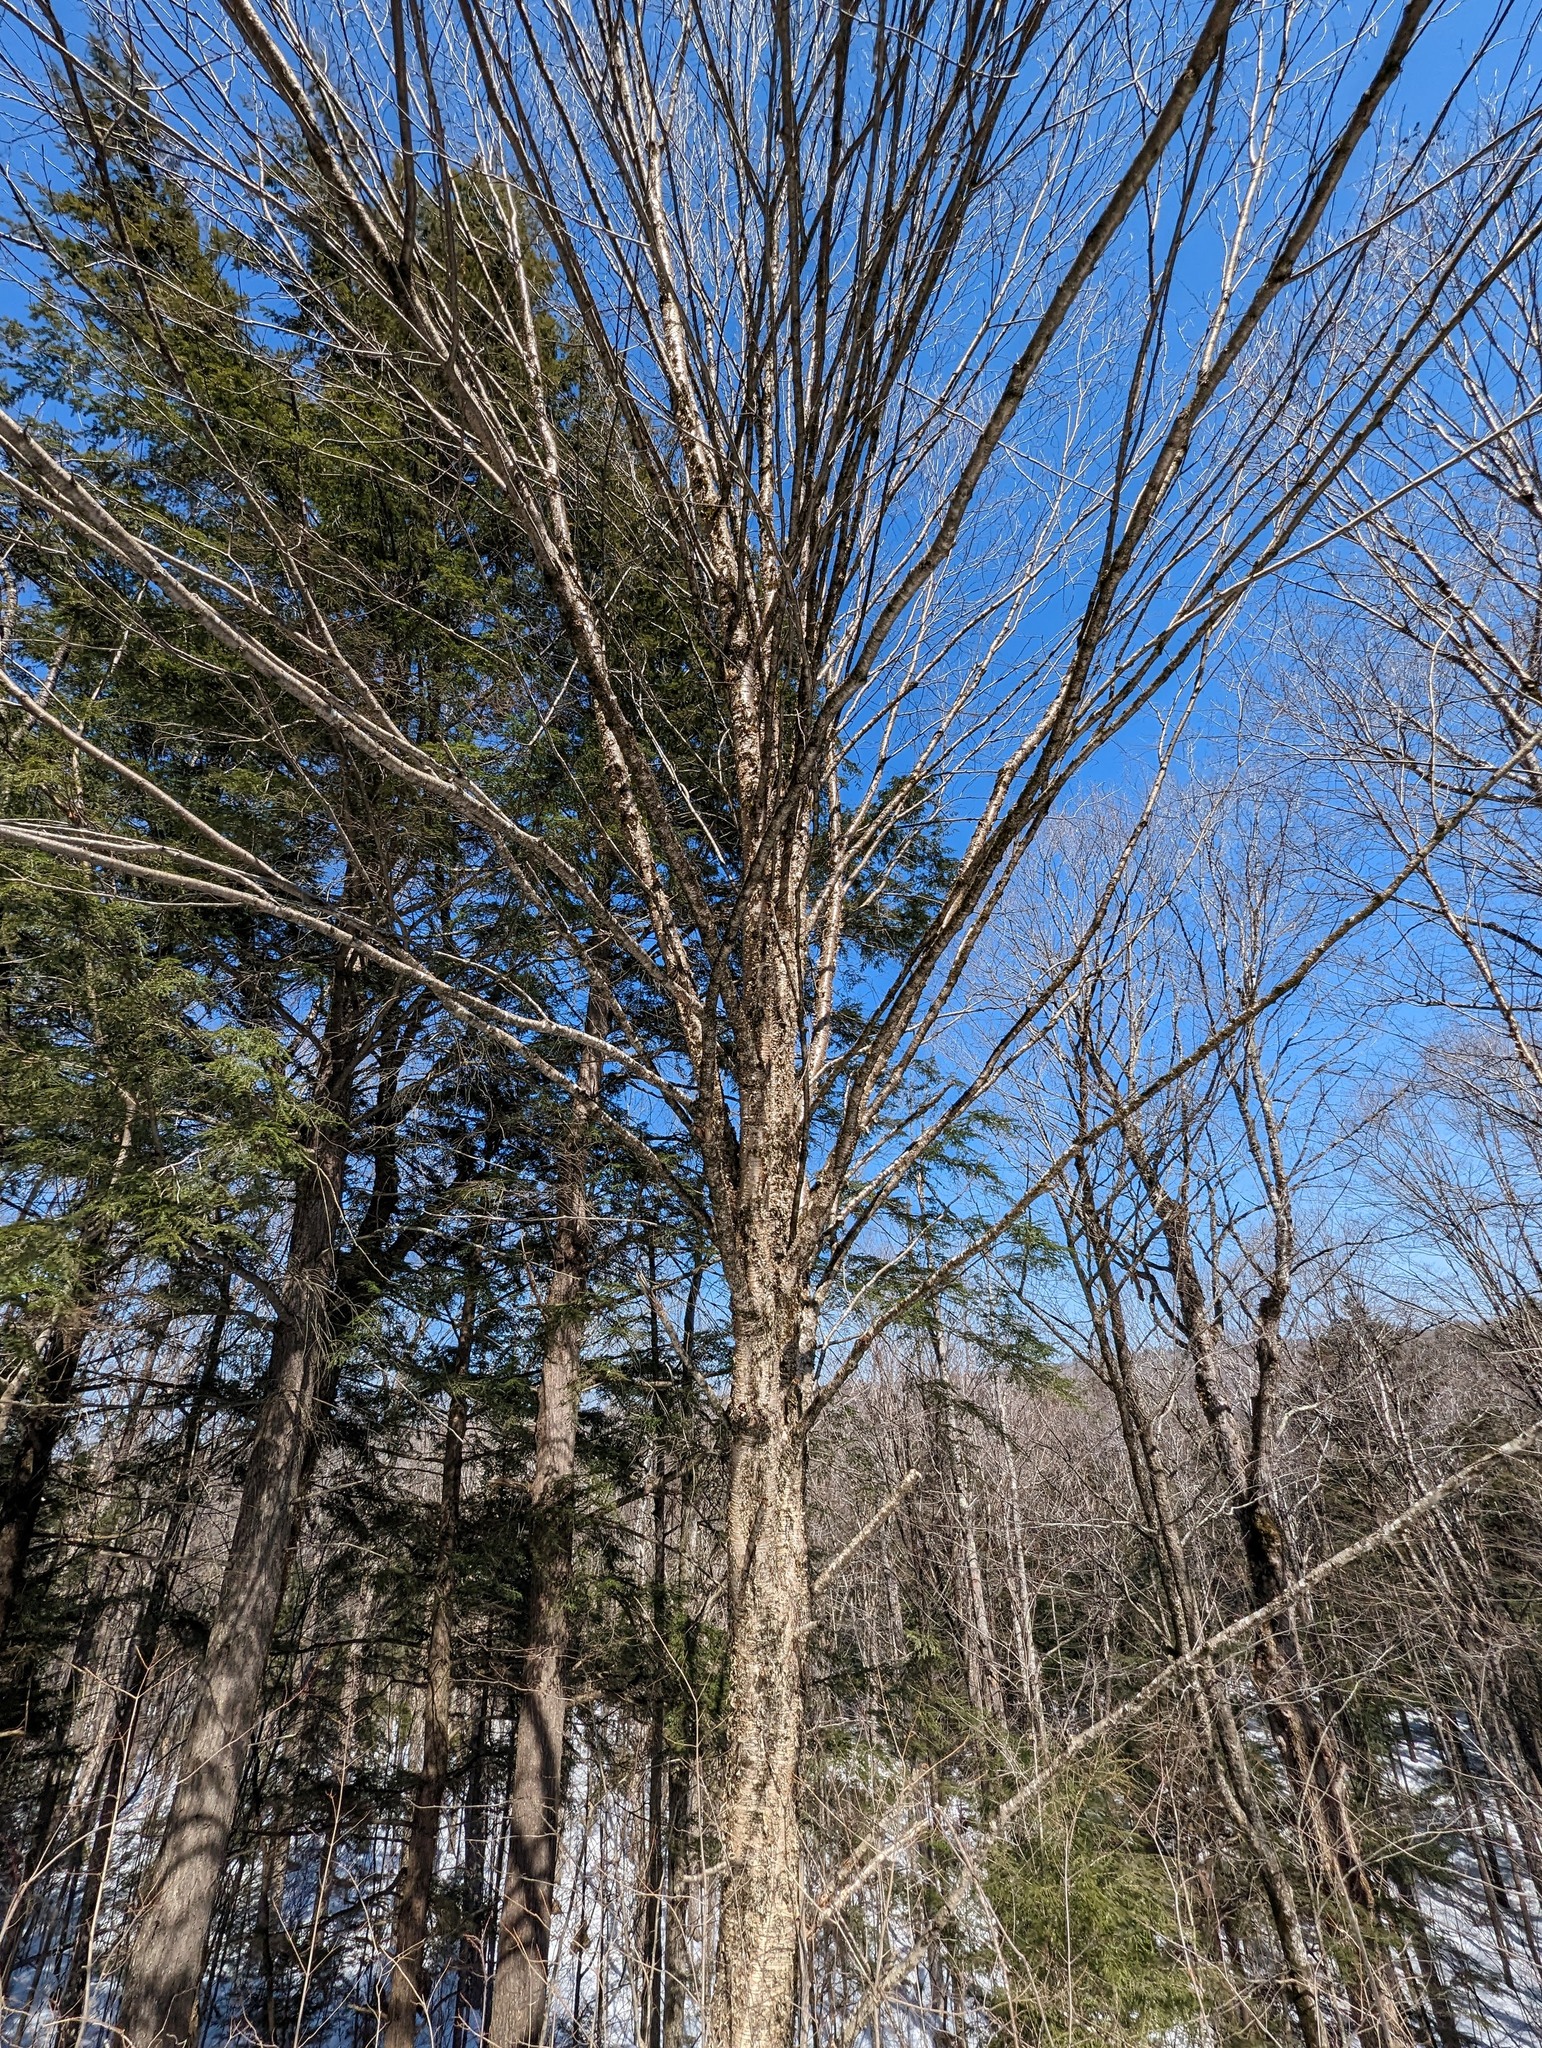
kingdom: Plantae
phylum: Tracheophyta
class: Magnoliopsida
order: Fagales
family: Betulaceae
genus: Betula
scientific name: Betula alleghaniensis
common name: Yellow birch
